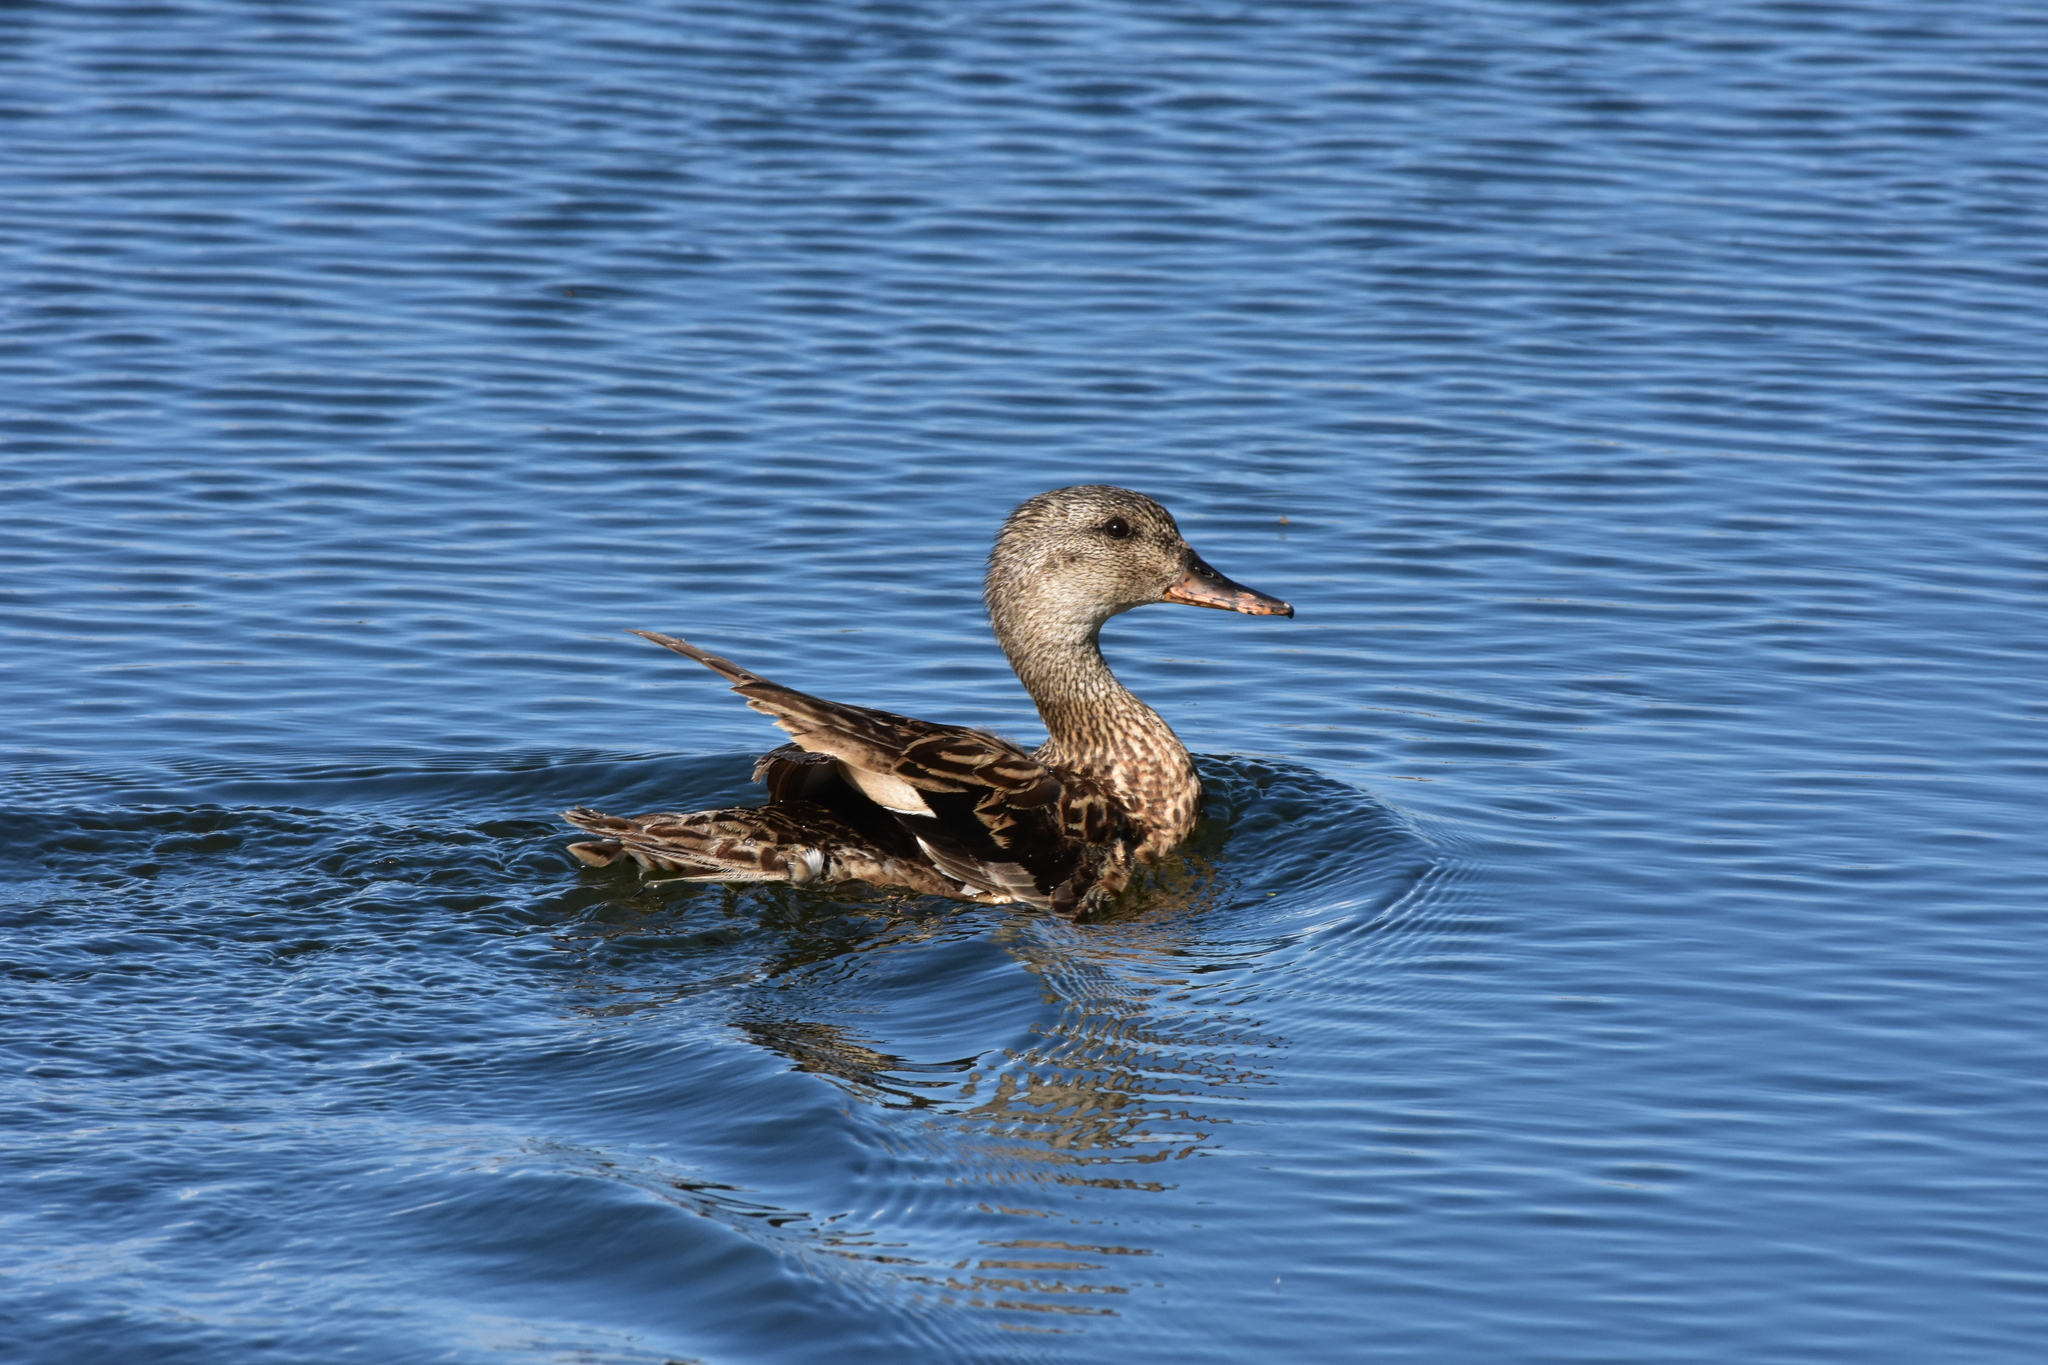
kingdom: Animalia
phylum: Chordata
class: Aves
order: Anseriformes
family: Anatidae
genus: Mareca
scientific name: Mareca strepera
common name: Gadwall
